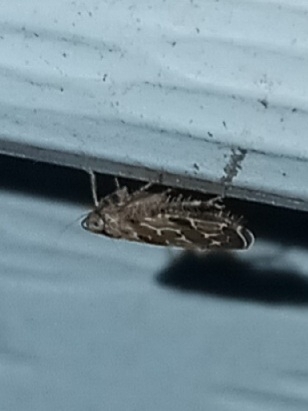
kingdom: Animalia
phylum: Arthropoda
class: Insecta
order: Hemiptera
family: Cicadellidae
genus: Sanctanus
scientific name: Sanctanus tectus
